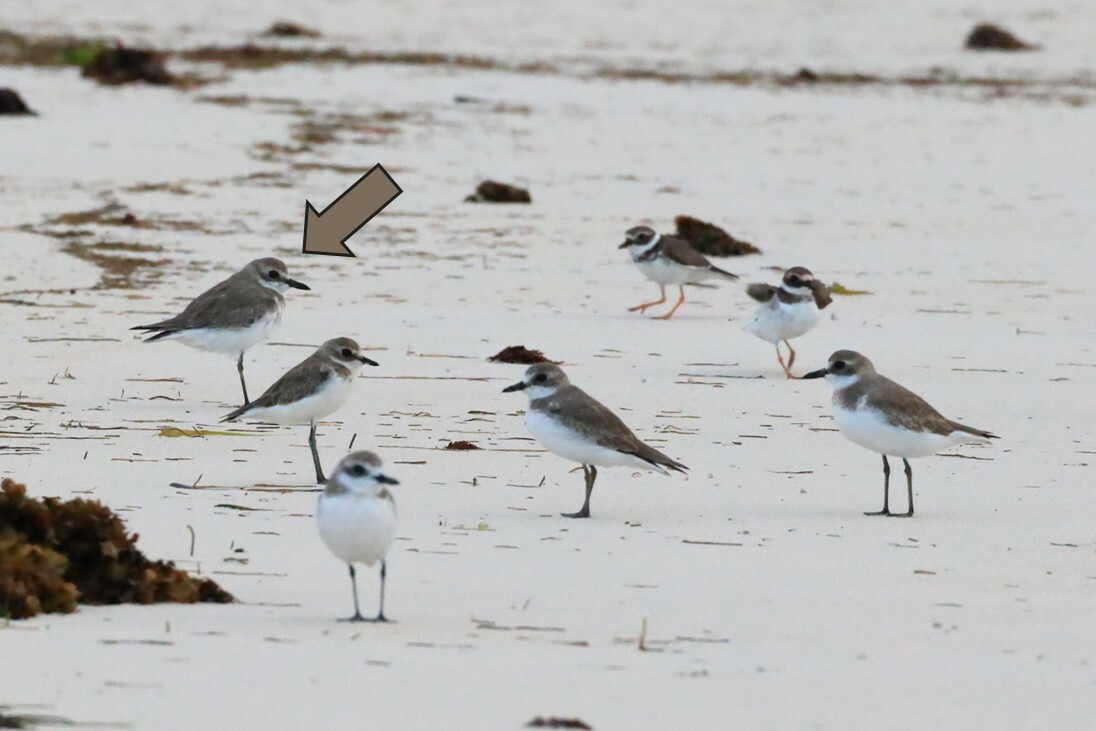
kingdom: Animalia
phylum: Chordata
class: Aves
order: Charadriiformes
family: Charadriidae
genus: Charadrius
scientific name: Charadrius leschenaultii
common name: Greater sand plover
